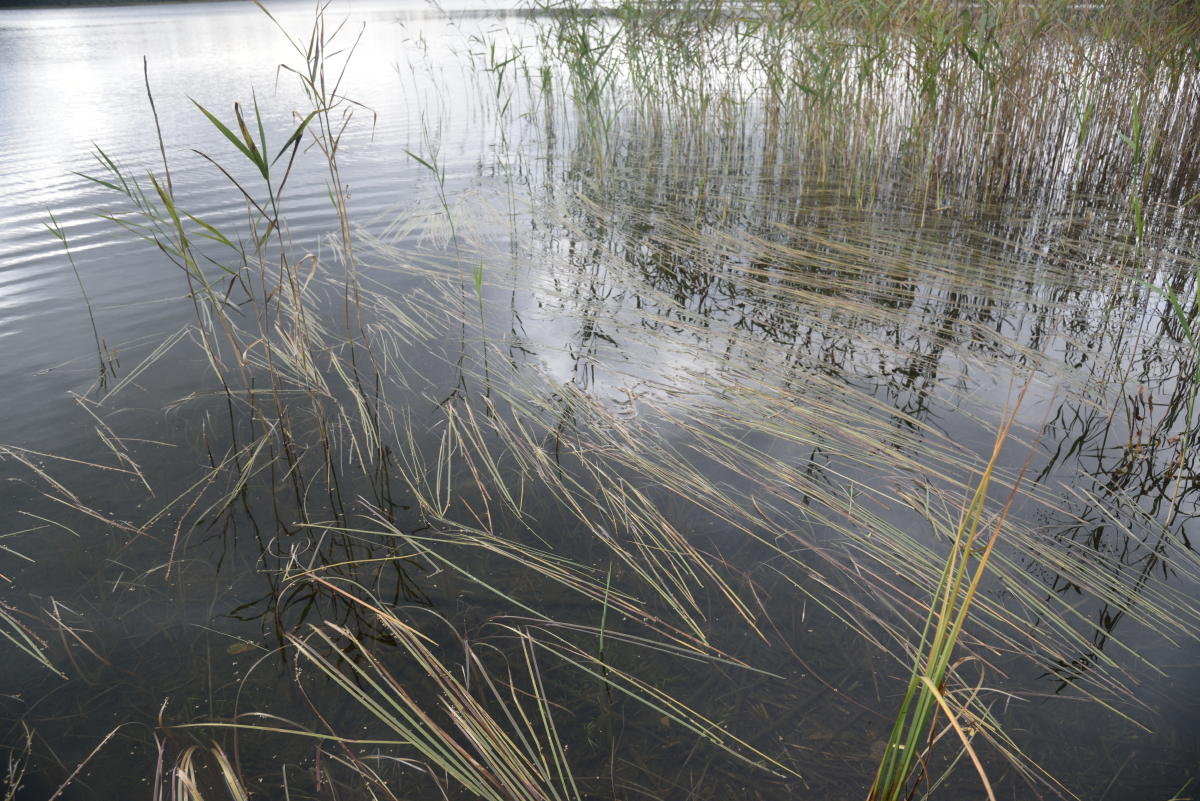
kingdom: Plantae
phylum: Tracheophyta
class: Liliopsida
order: Poales
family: Typhaceae
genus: Sparganium
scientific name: Sparganium gramineum
